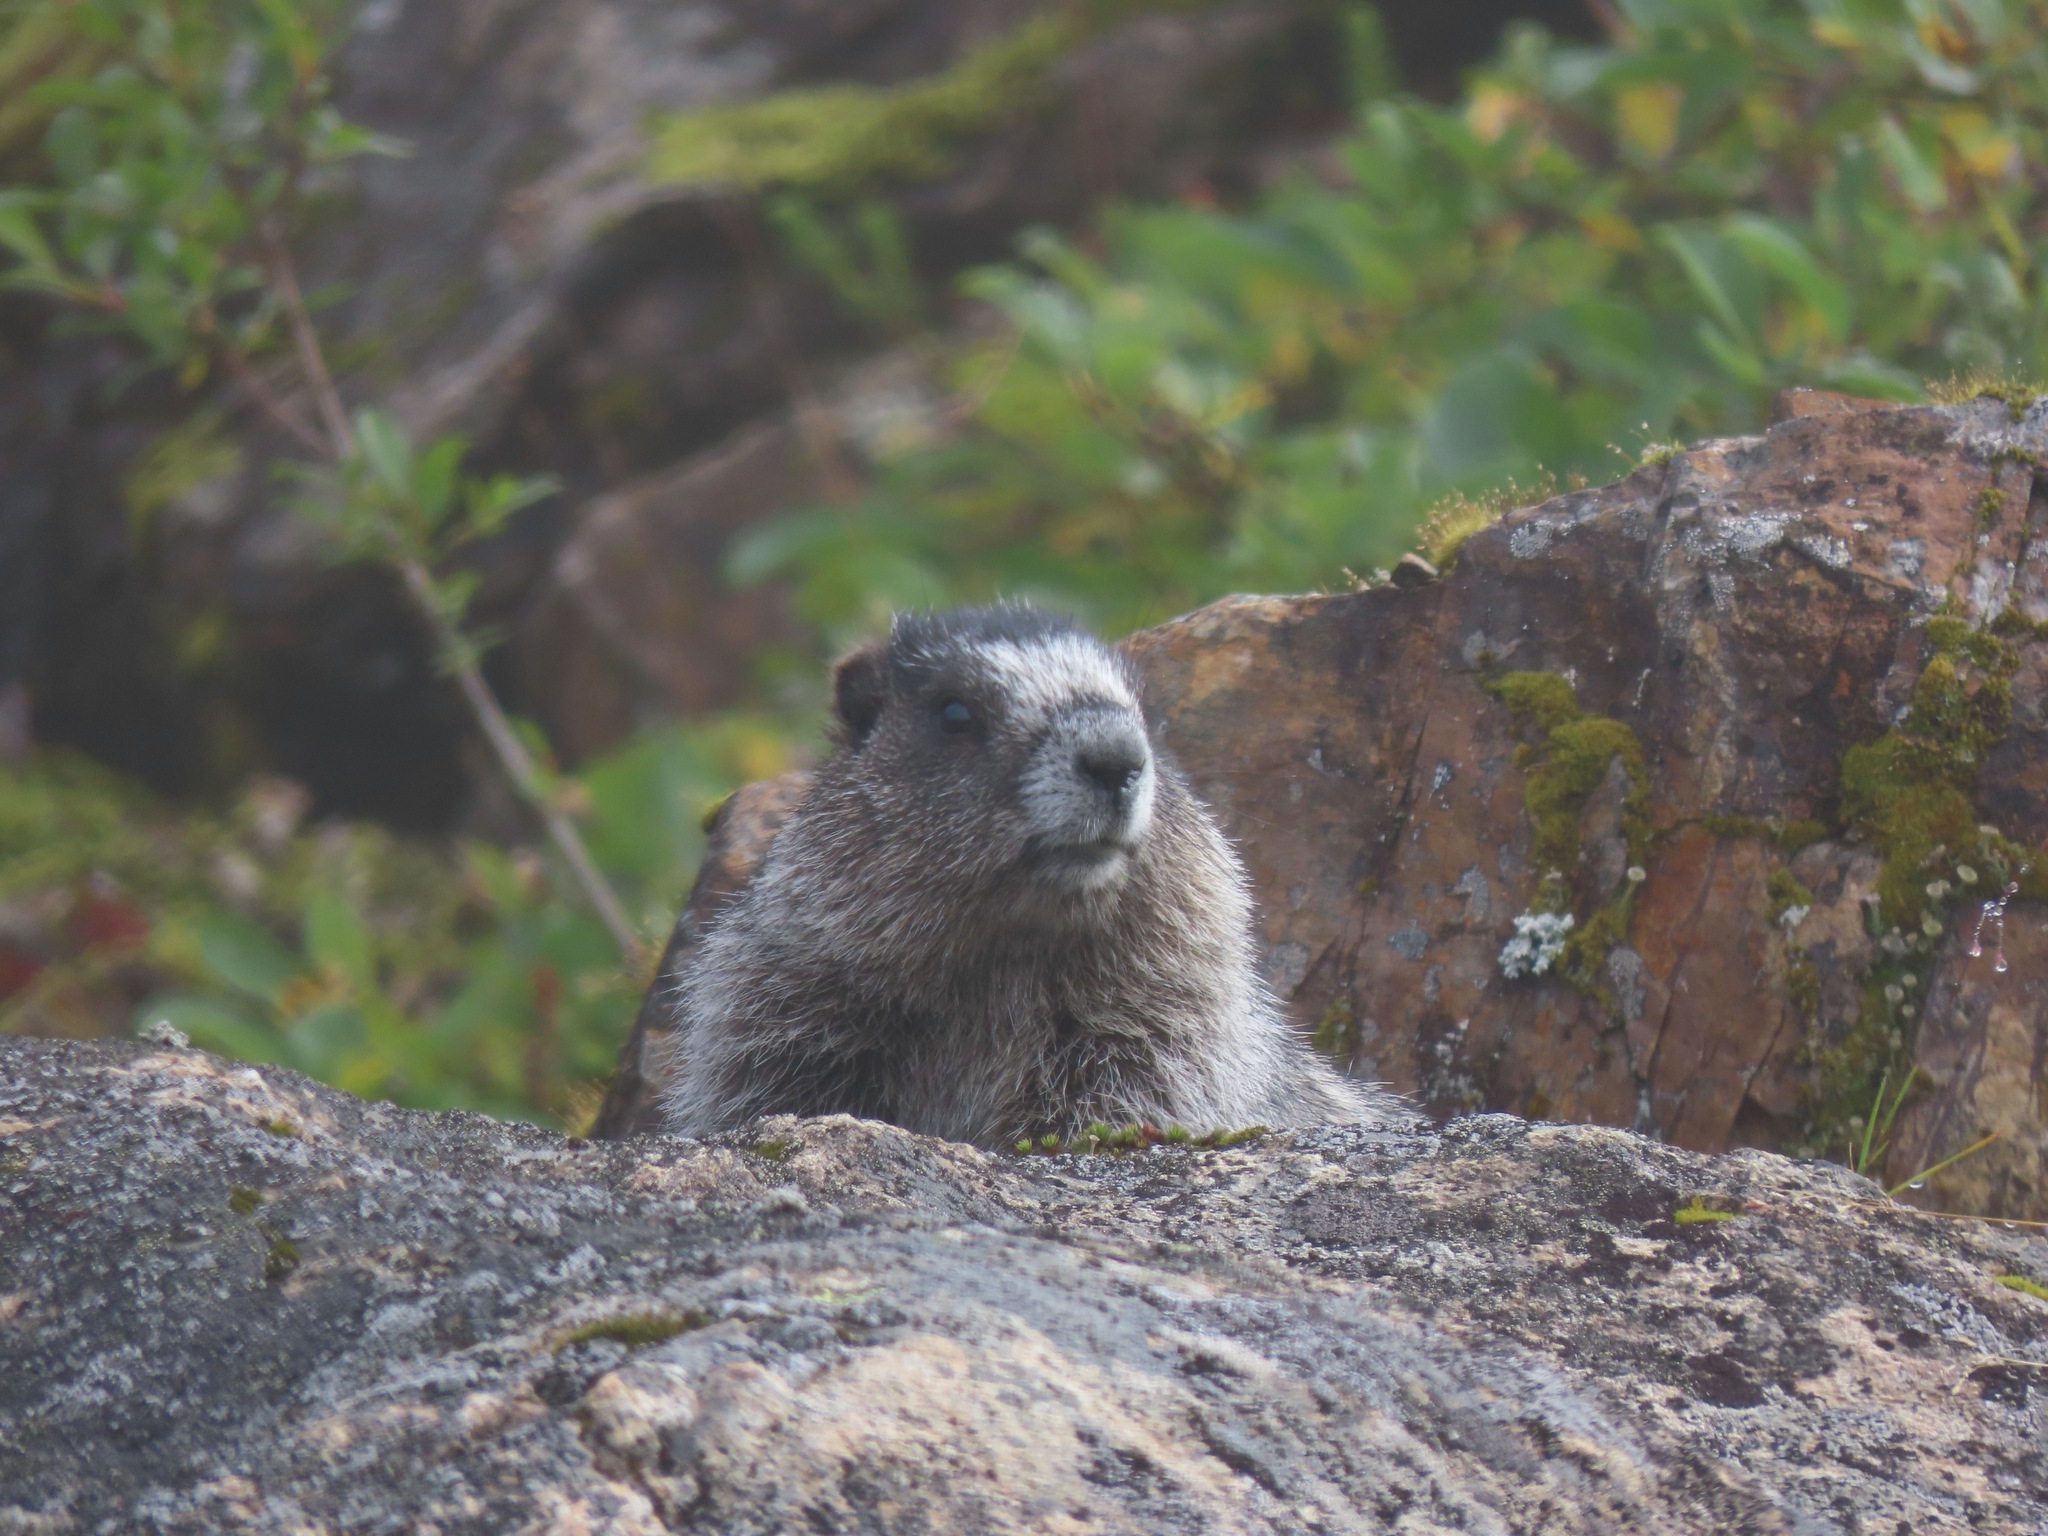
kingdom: Animalia
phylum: Chordata
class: Mammalia
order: Rodentia
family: Sciuridae
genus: Marmota
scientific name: Marmota caligata
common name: Hoary marmot
